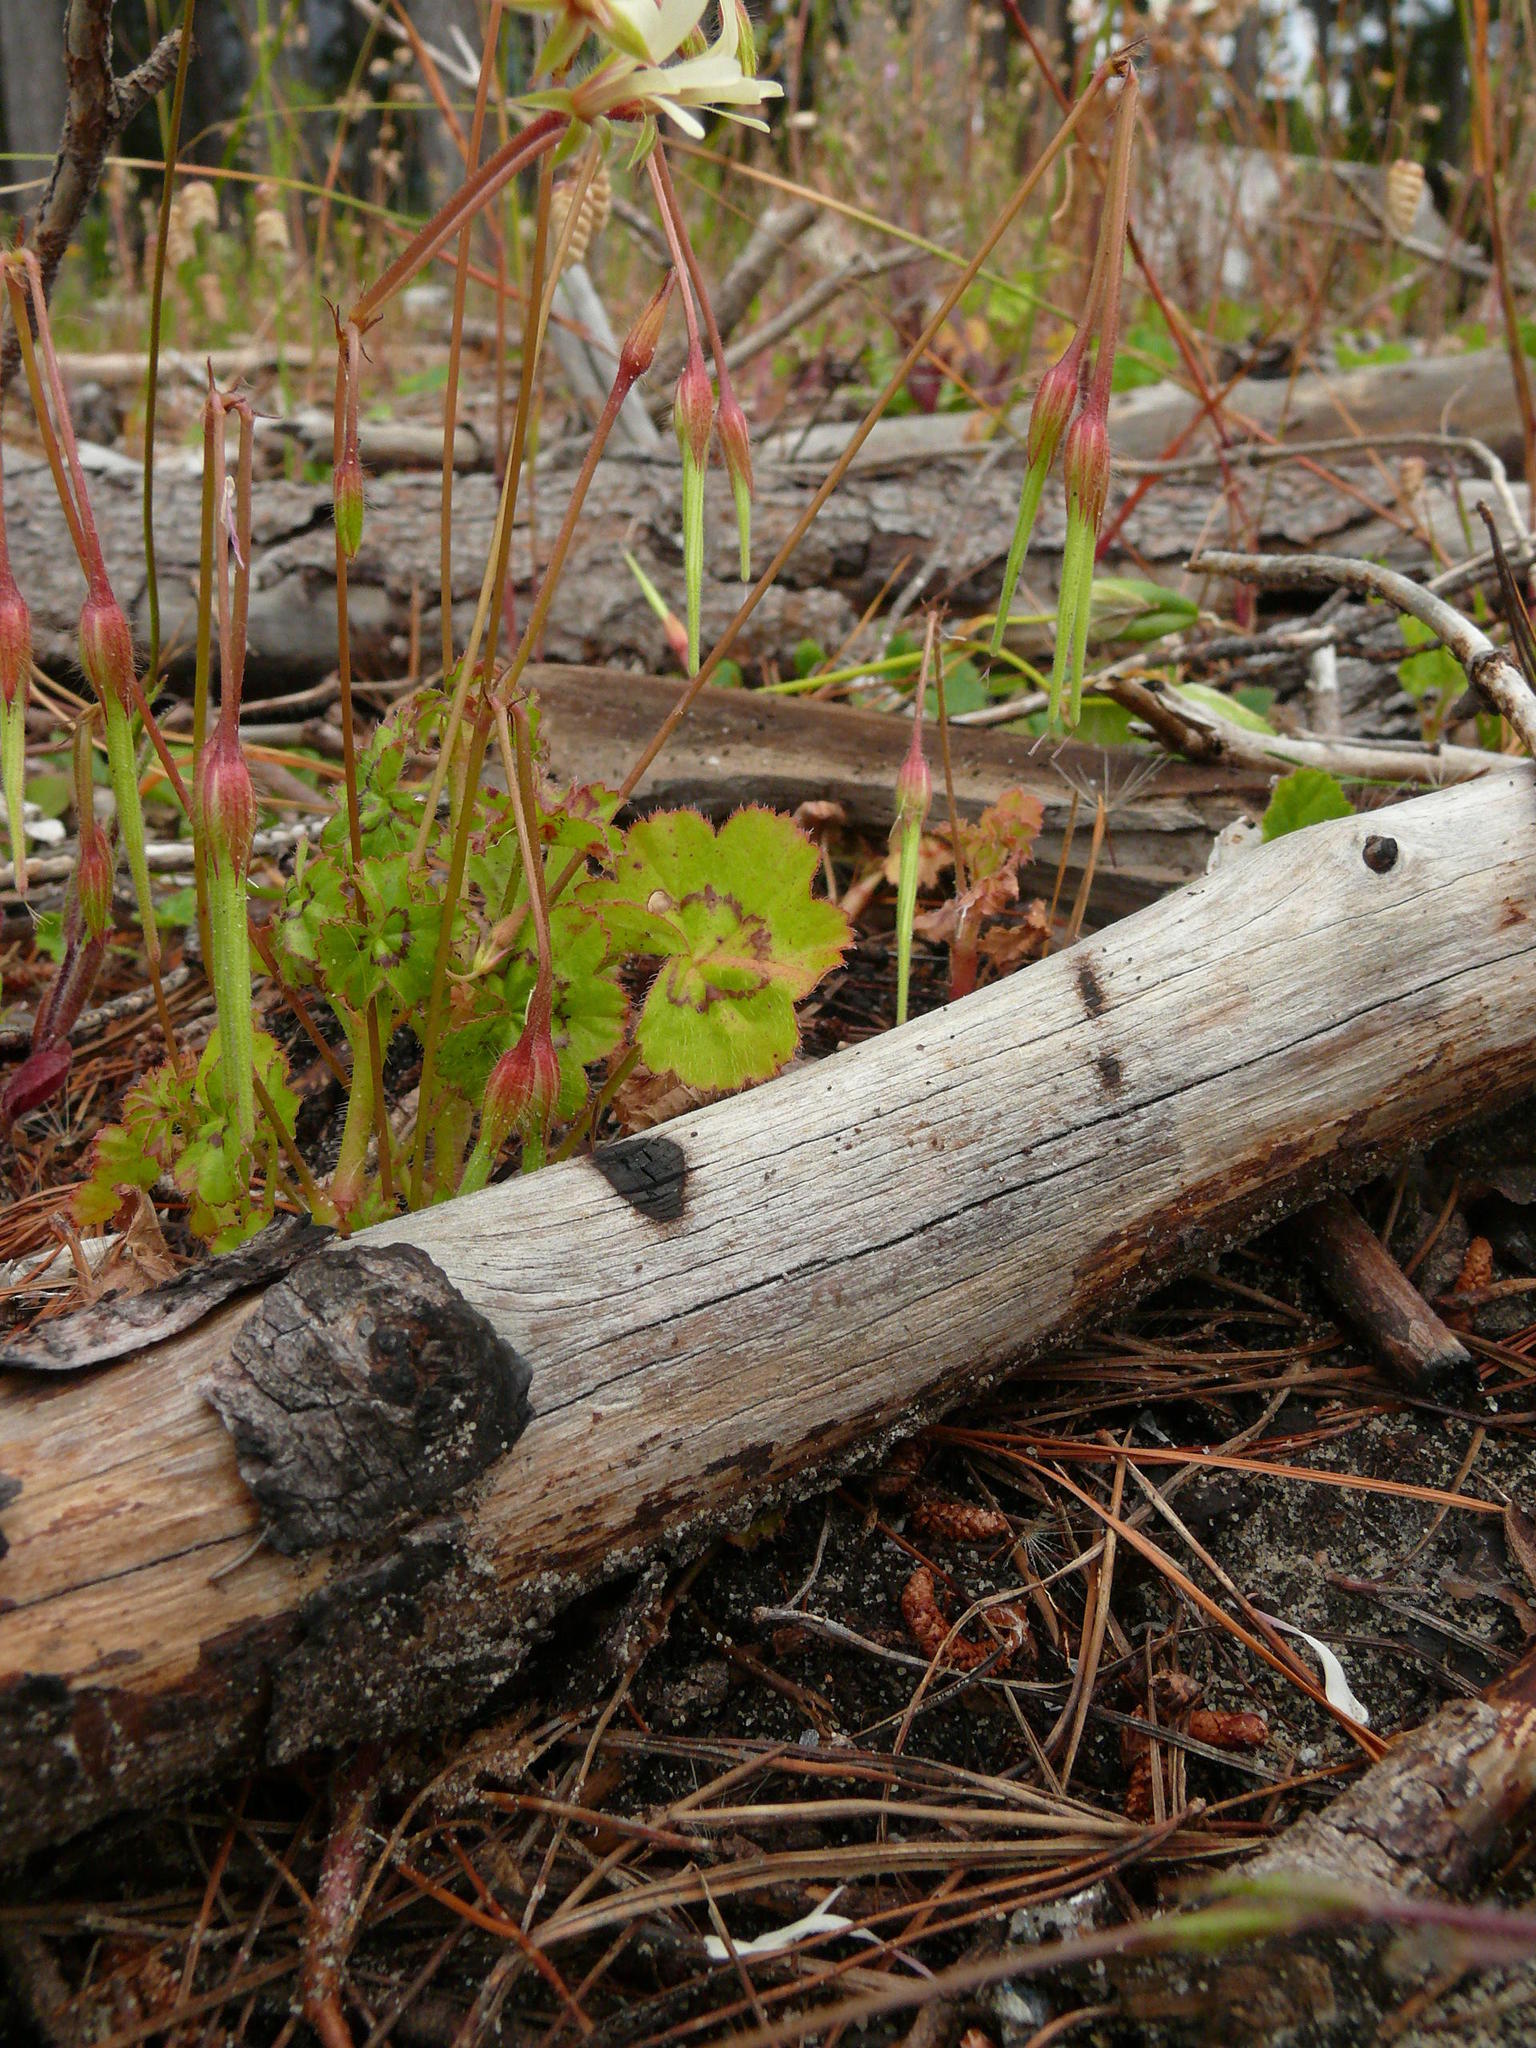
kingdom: Plantae
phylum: Tracheophyta
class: Magnoliopsida
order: Geraniales
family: Geraniaceae
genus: Pelargonium
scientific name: Pelargonium elongatum
